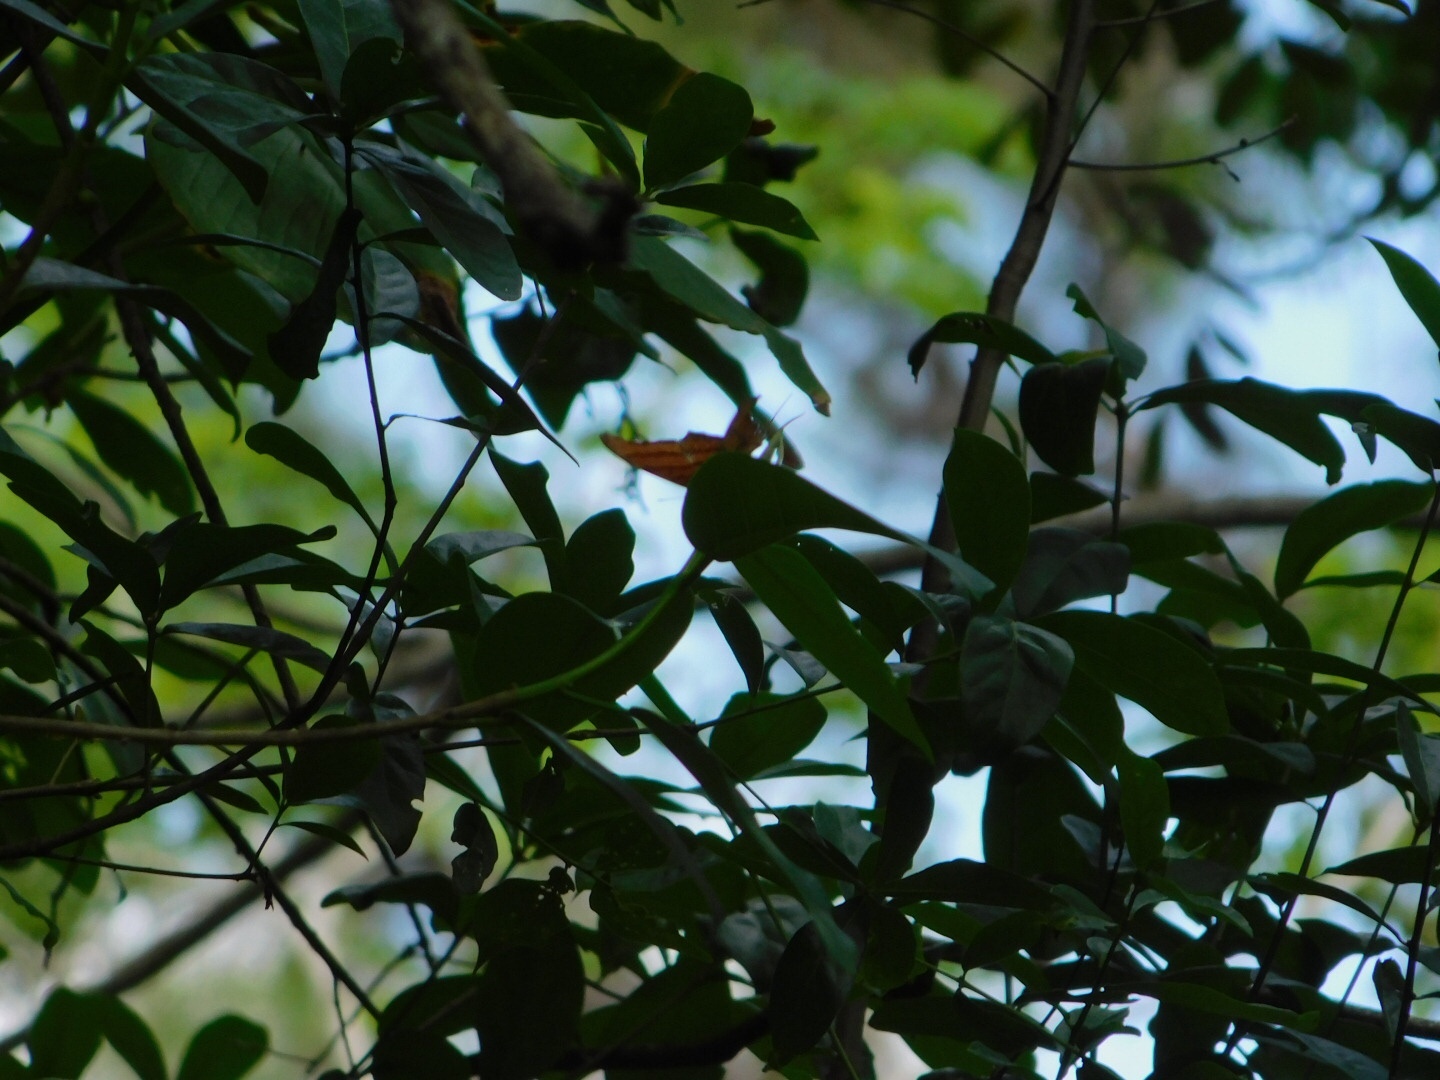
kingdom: Animalia
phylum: Arthropoda
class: Insecta
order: Lepidoptera
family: Nymphalidae
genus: Marpesia
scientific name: Marpesia petreus
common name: Red dagger wing
